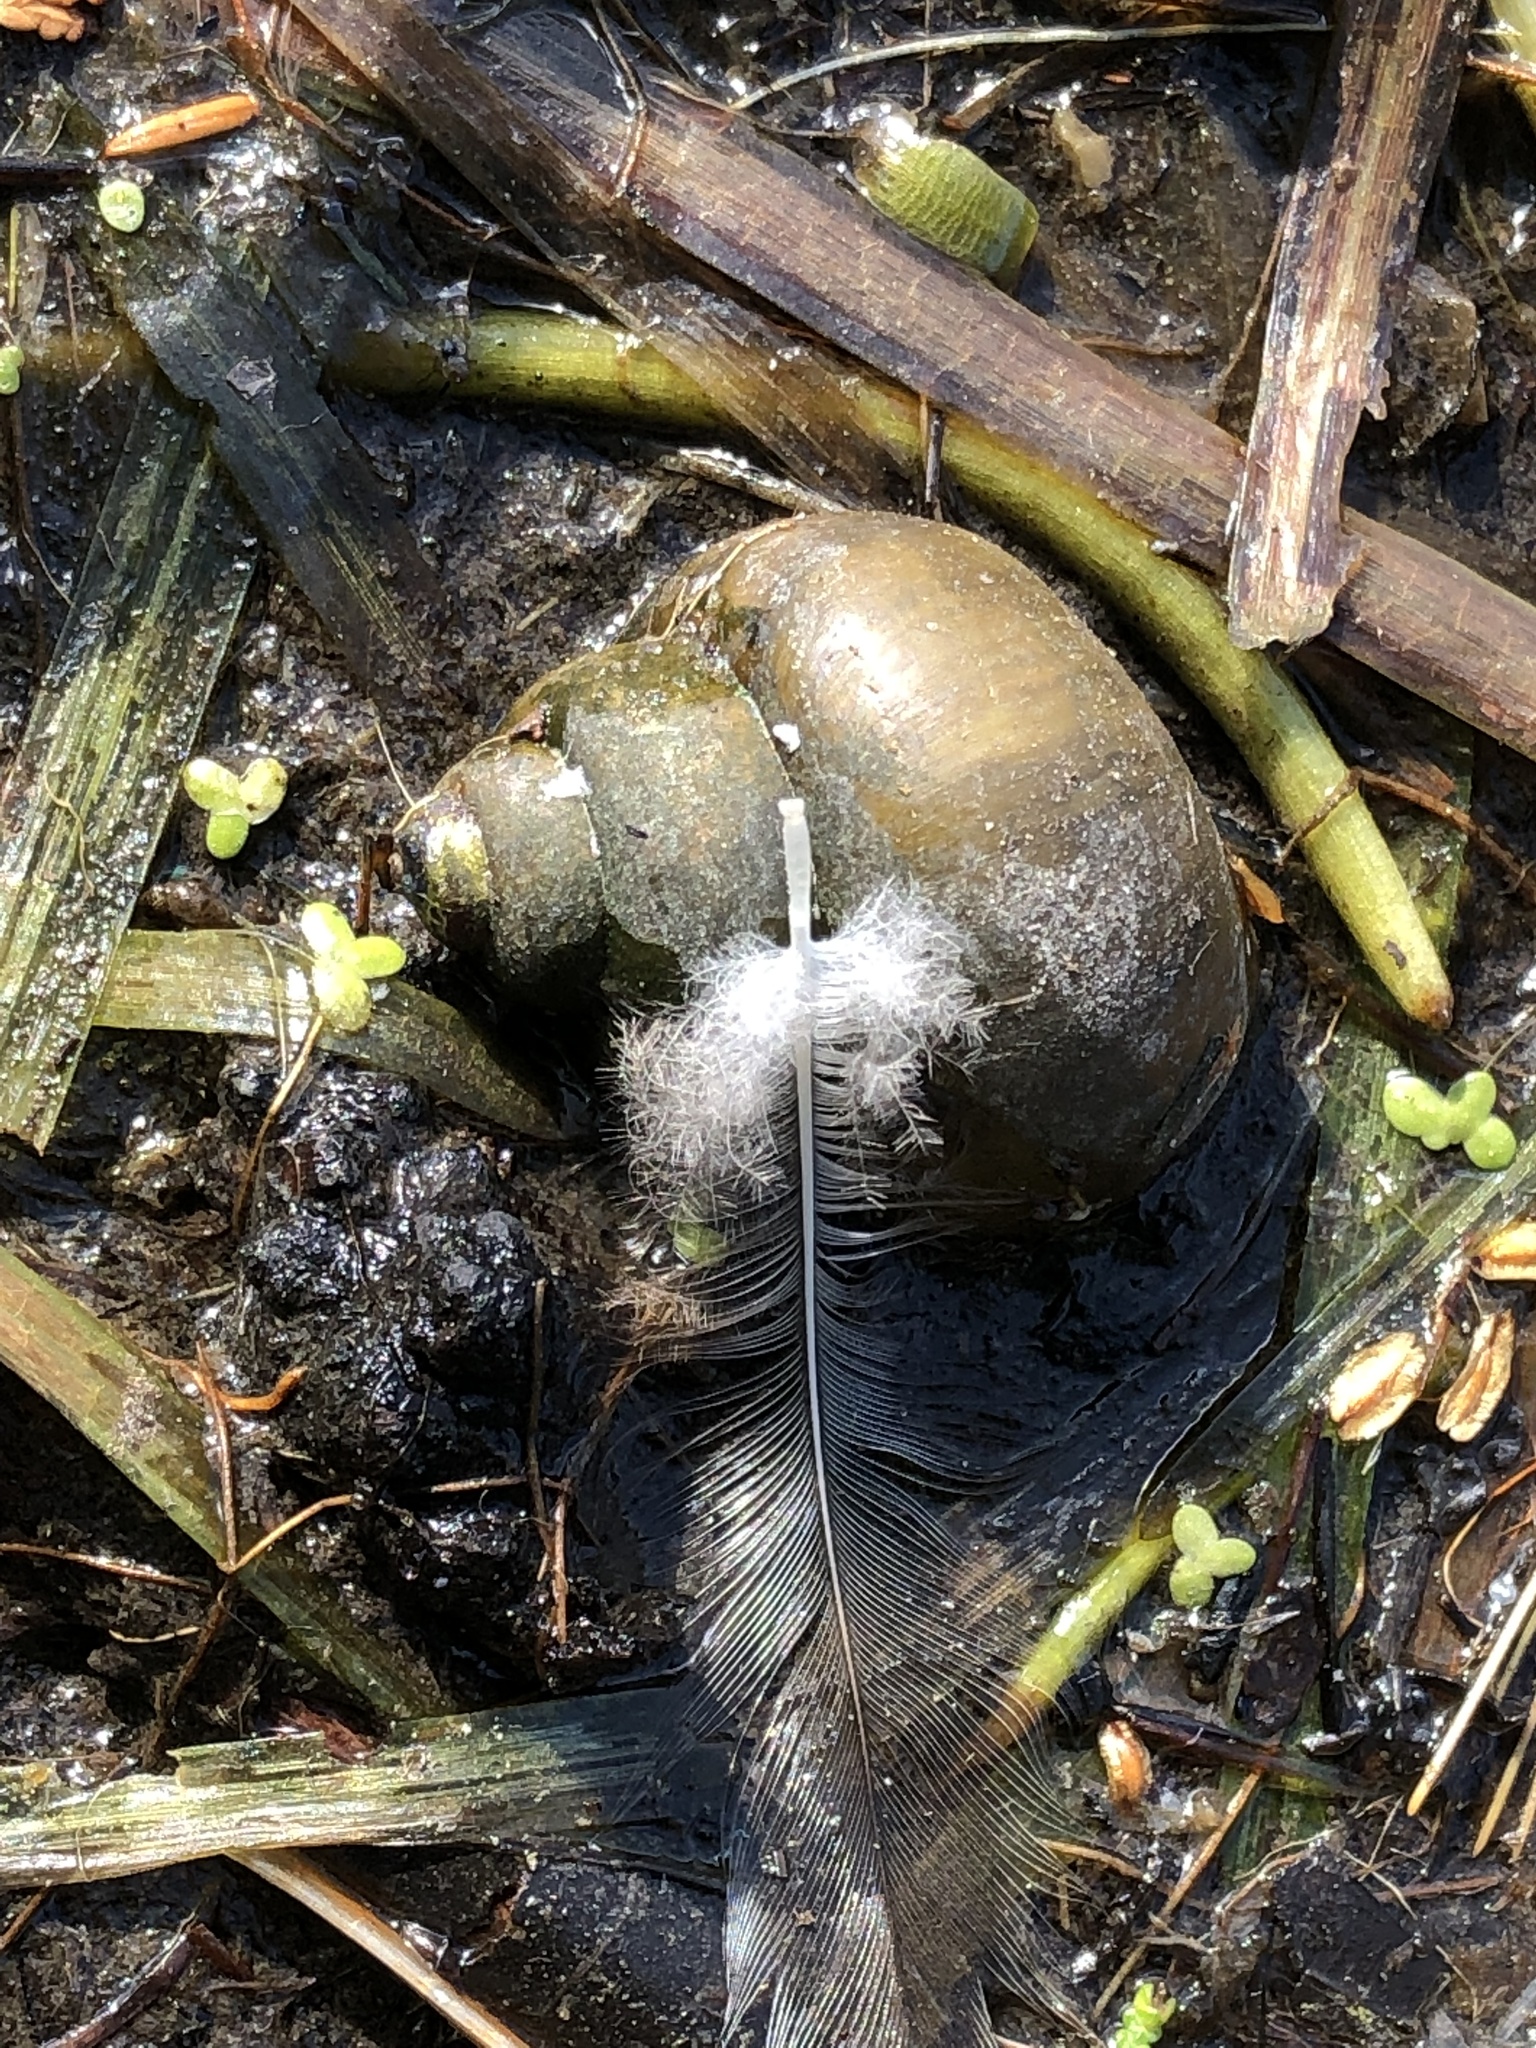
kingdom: Animalia
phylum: Mollusca
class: Gastropoda
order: Architaenioglossa
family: Viviparidae
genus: Cipangopaludina
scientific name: Cipangopaludina chinensis
